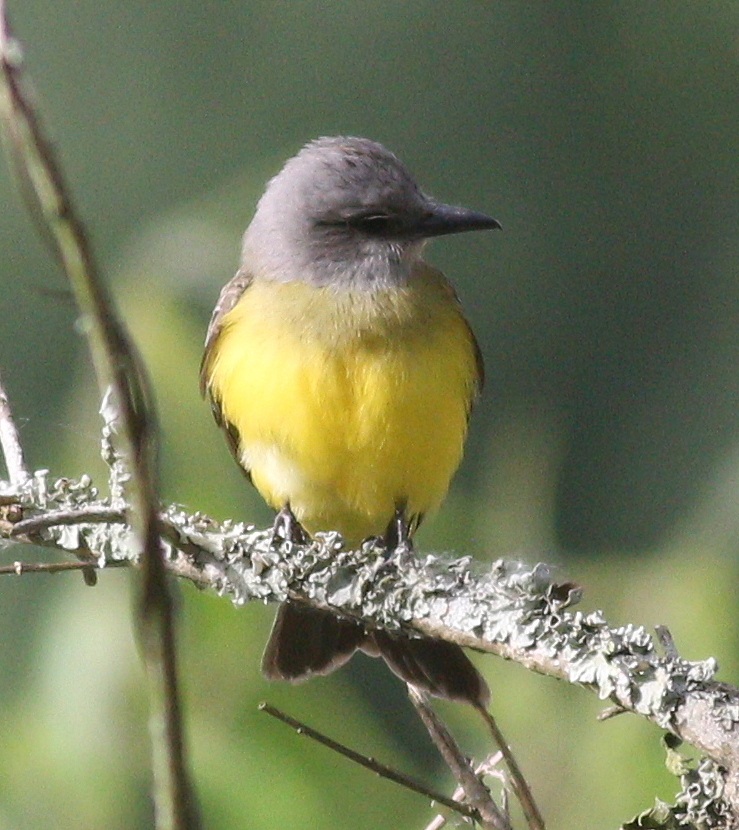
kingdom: Animalia
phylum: Chordata
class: Aves
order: Passeriformes
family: Tyrannidae
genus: Tyrannus
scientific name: Tyrannus melancholicus
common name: Tropical kingbird
